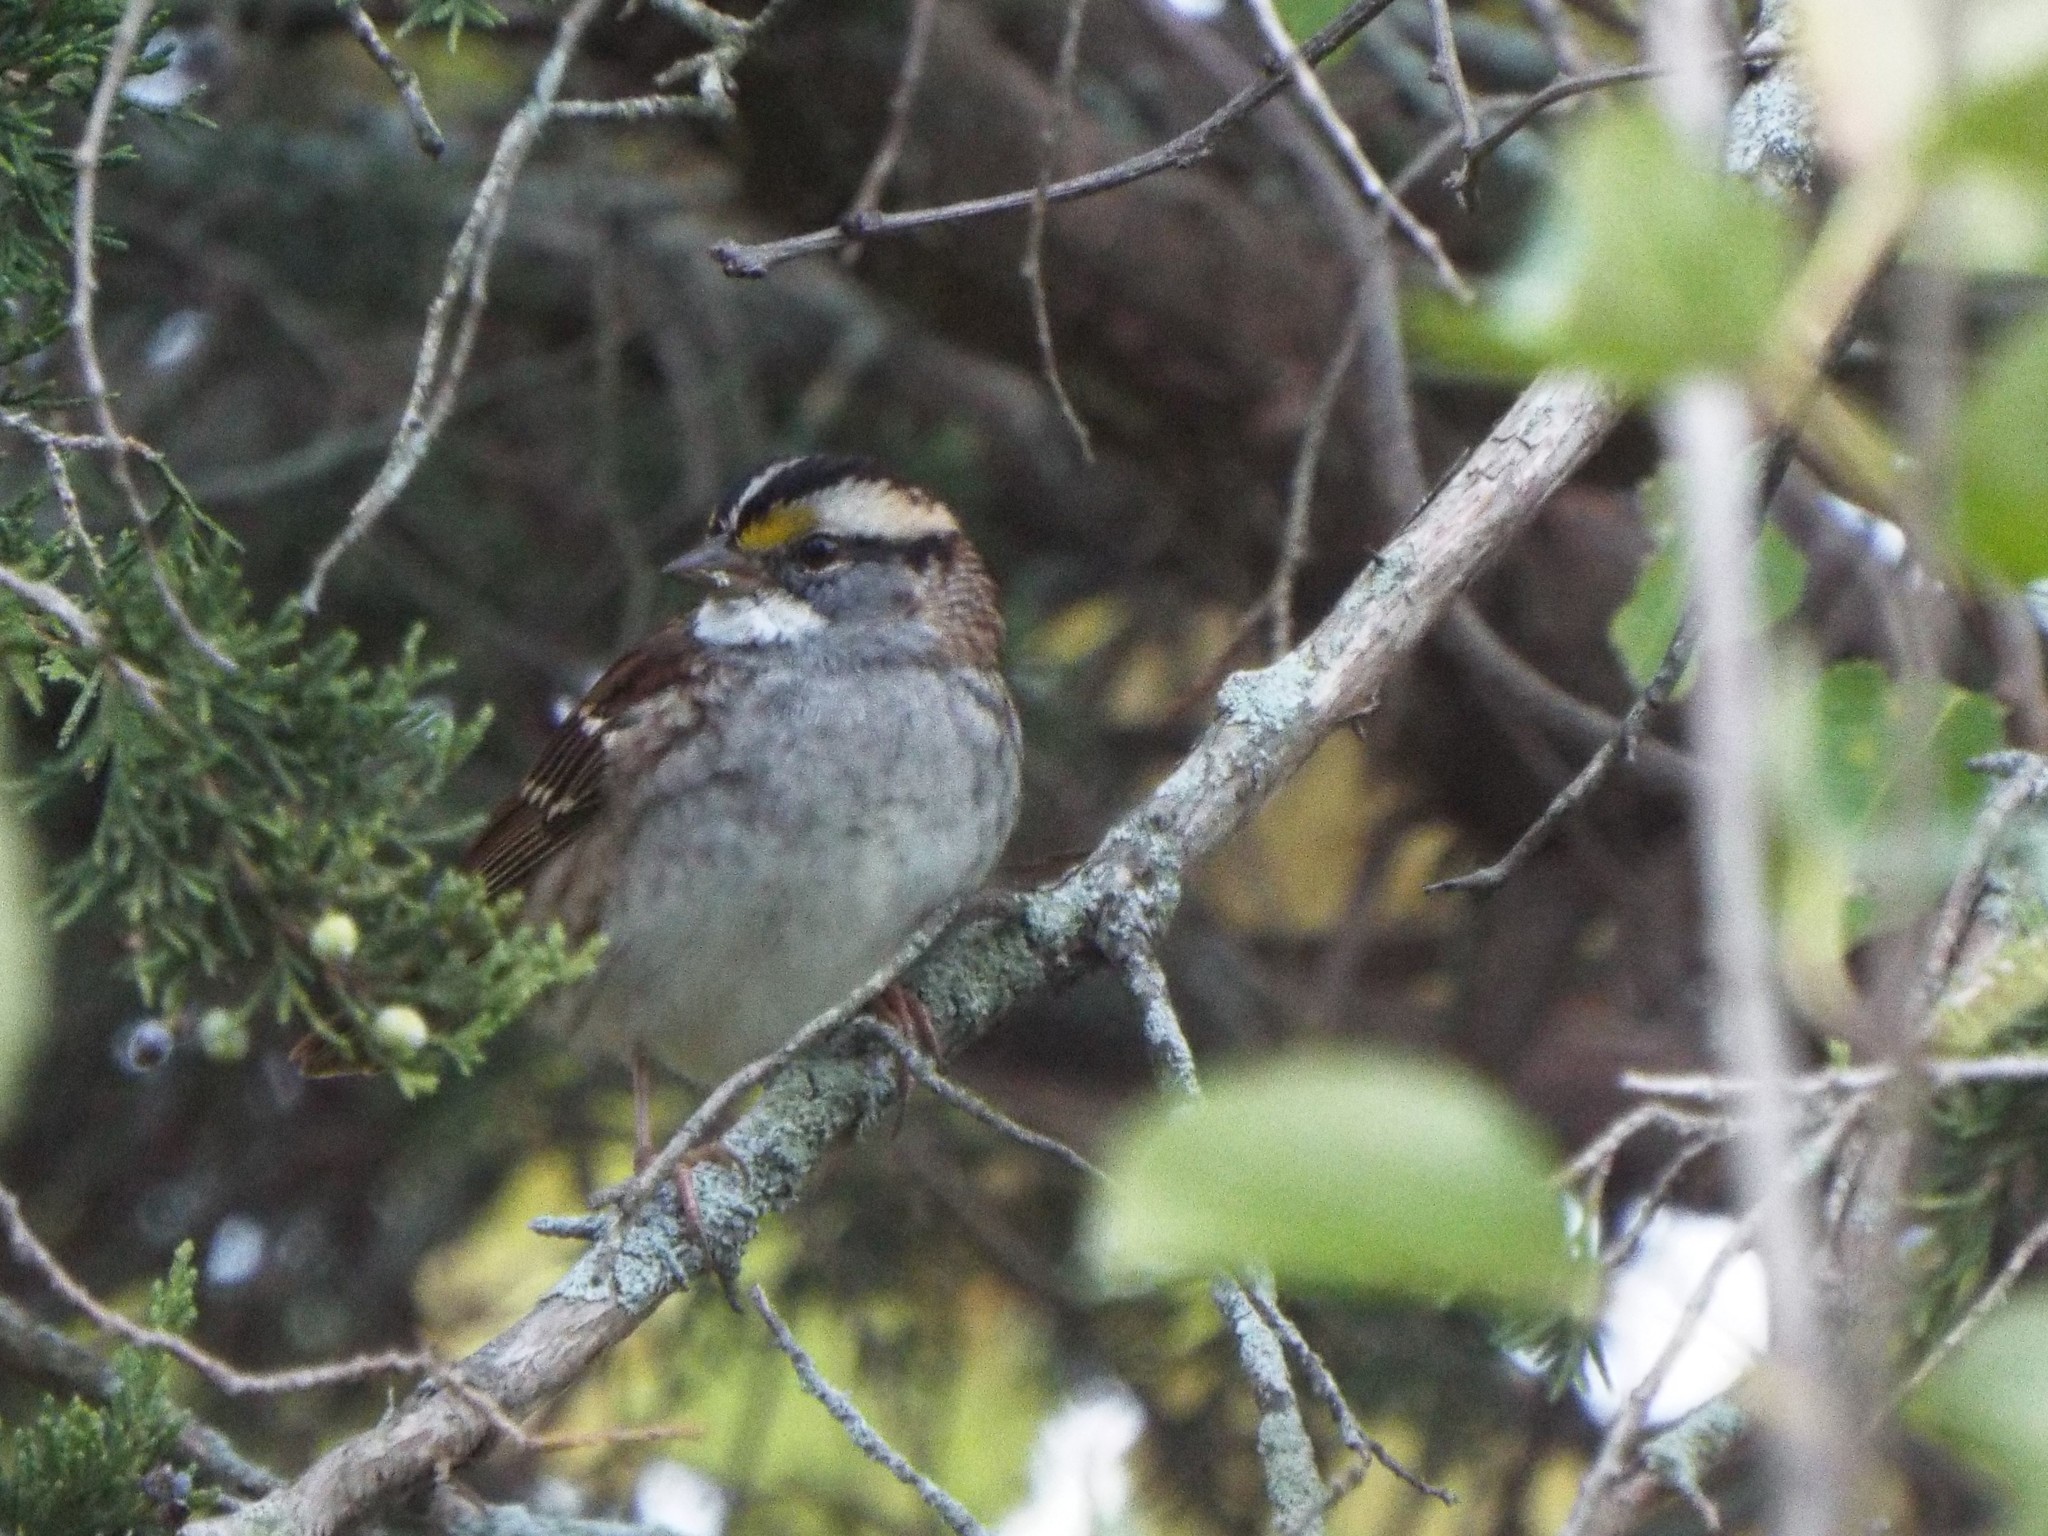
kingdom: Animalia
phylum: Chordata
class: Aves
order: Passeriformes
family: Passerellidae
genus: Zonotrichia
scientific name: Zonotrichia albicollis
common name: White-throated sparrow
